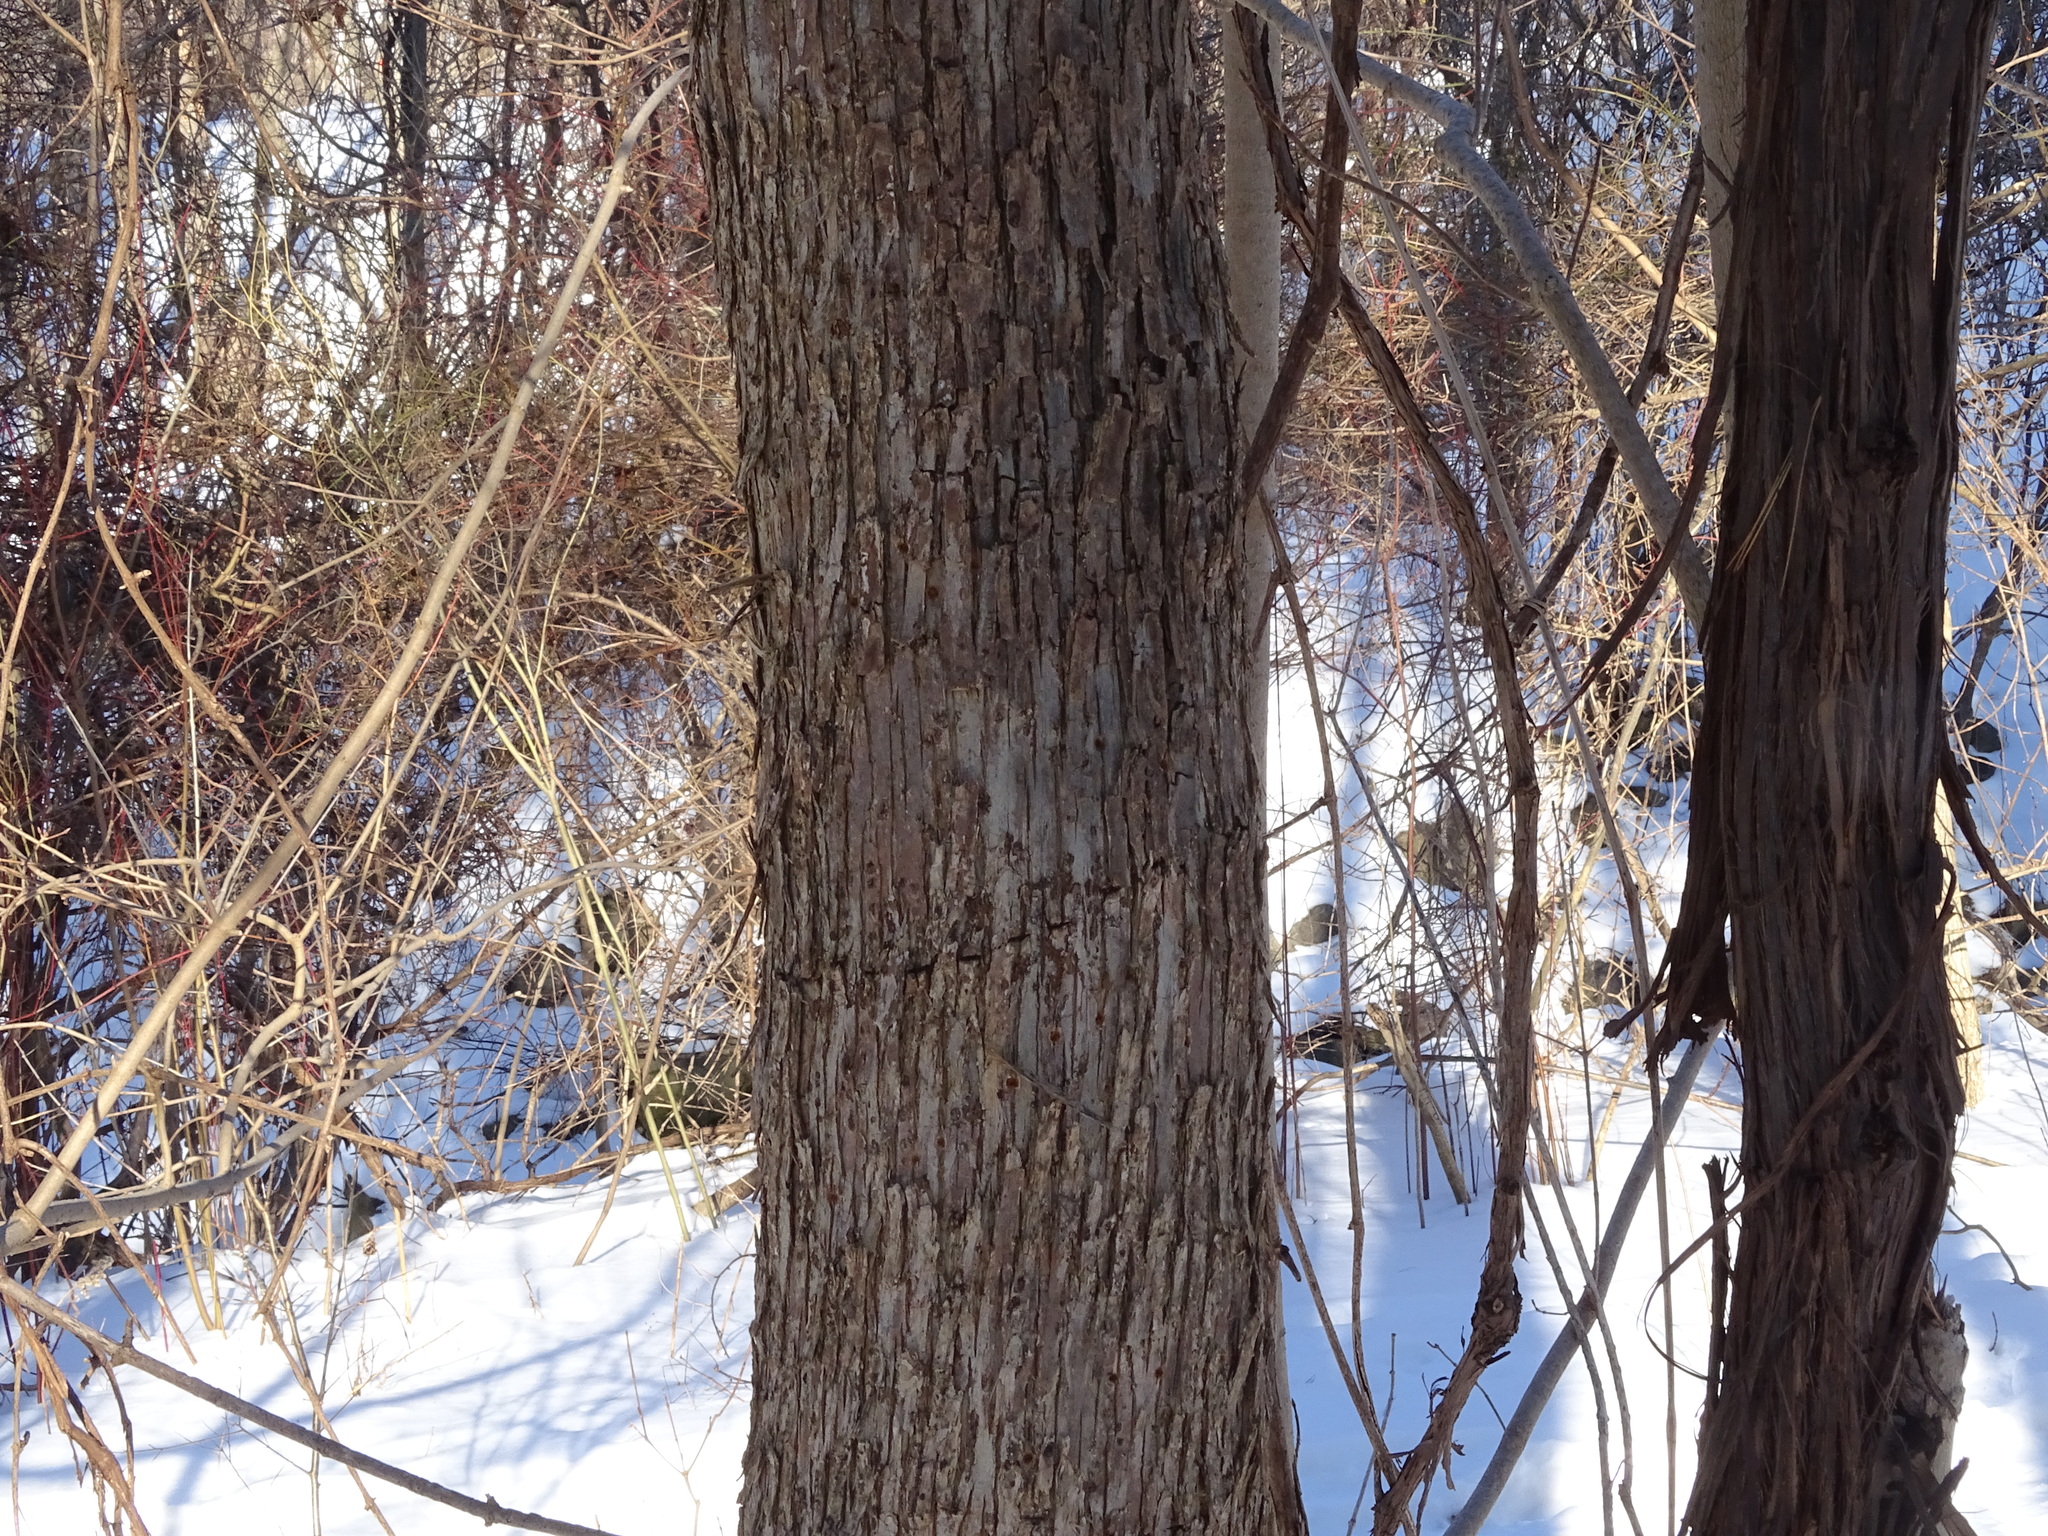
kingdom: Plantae
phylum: Tracheophyta
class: Magnoliopsida
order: Fagales
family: Betulaceae
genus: Ostrya
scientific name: Ostrya virginiana
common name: Ironwood
